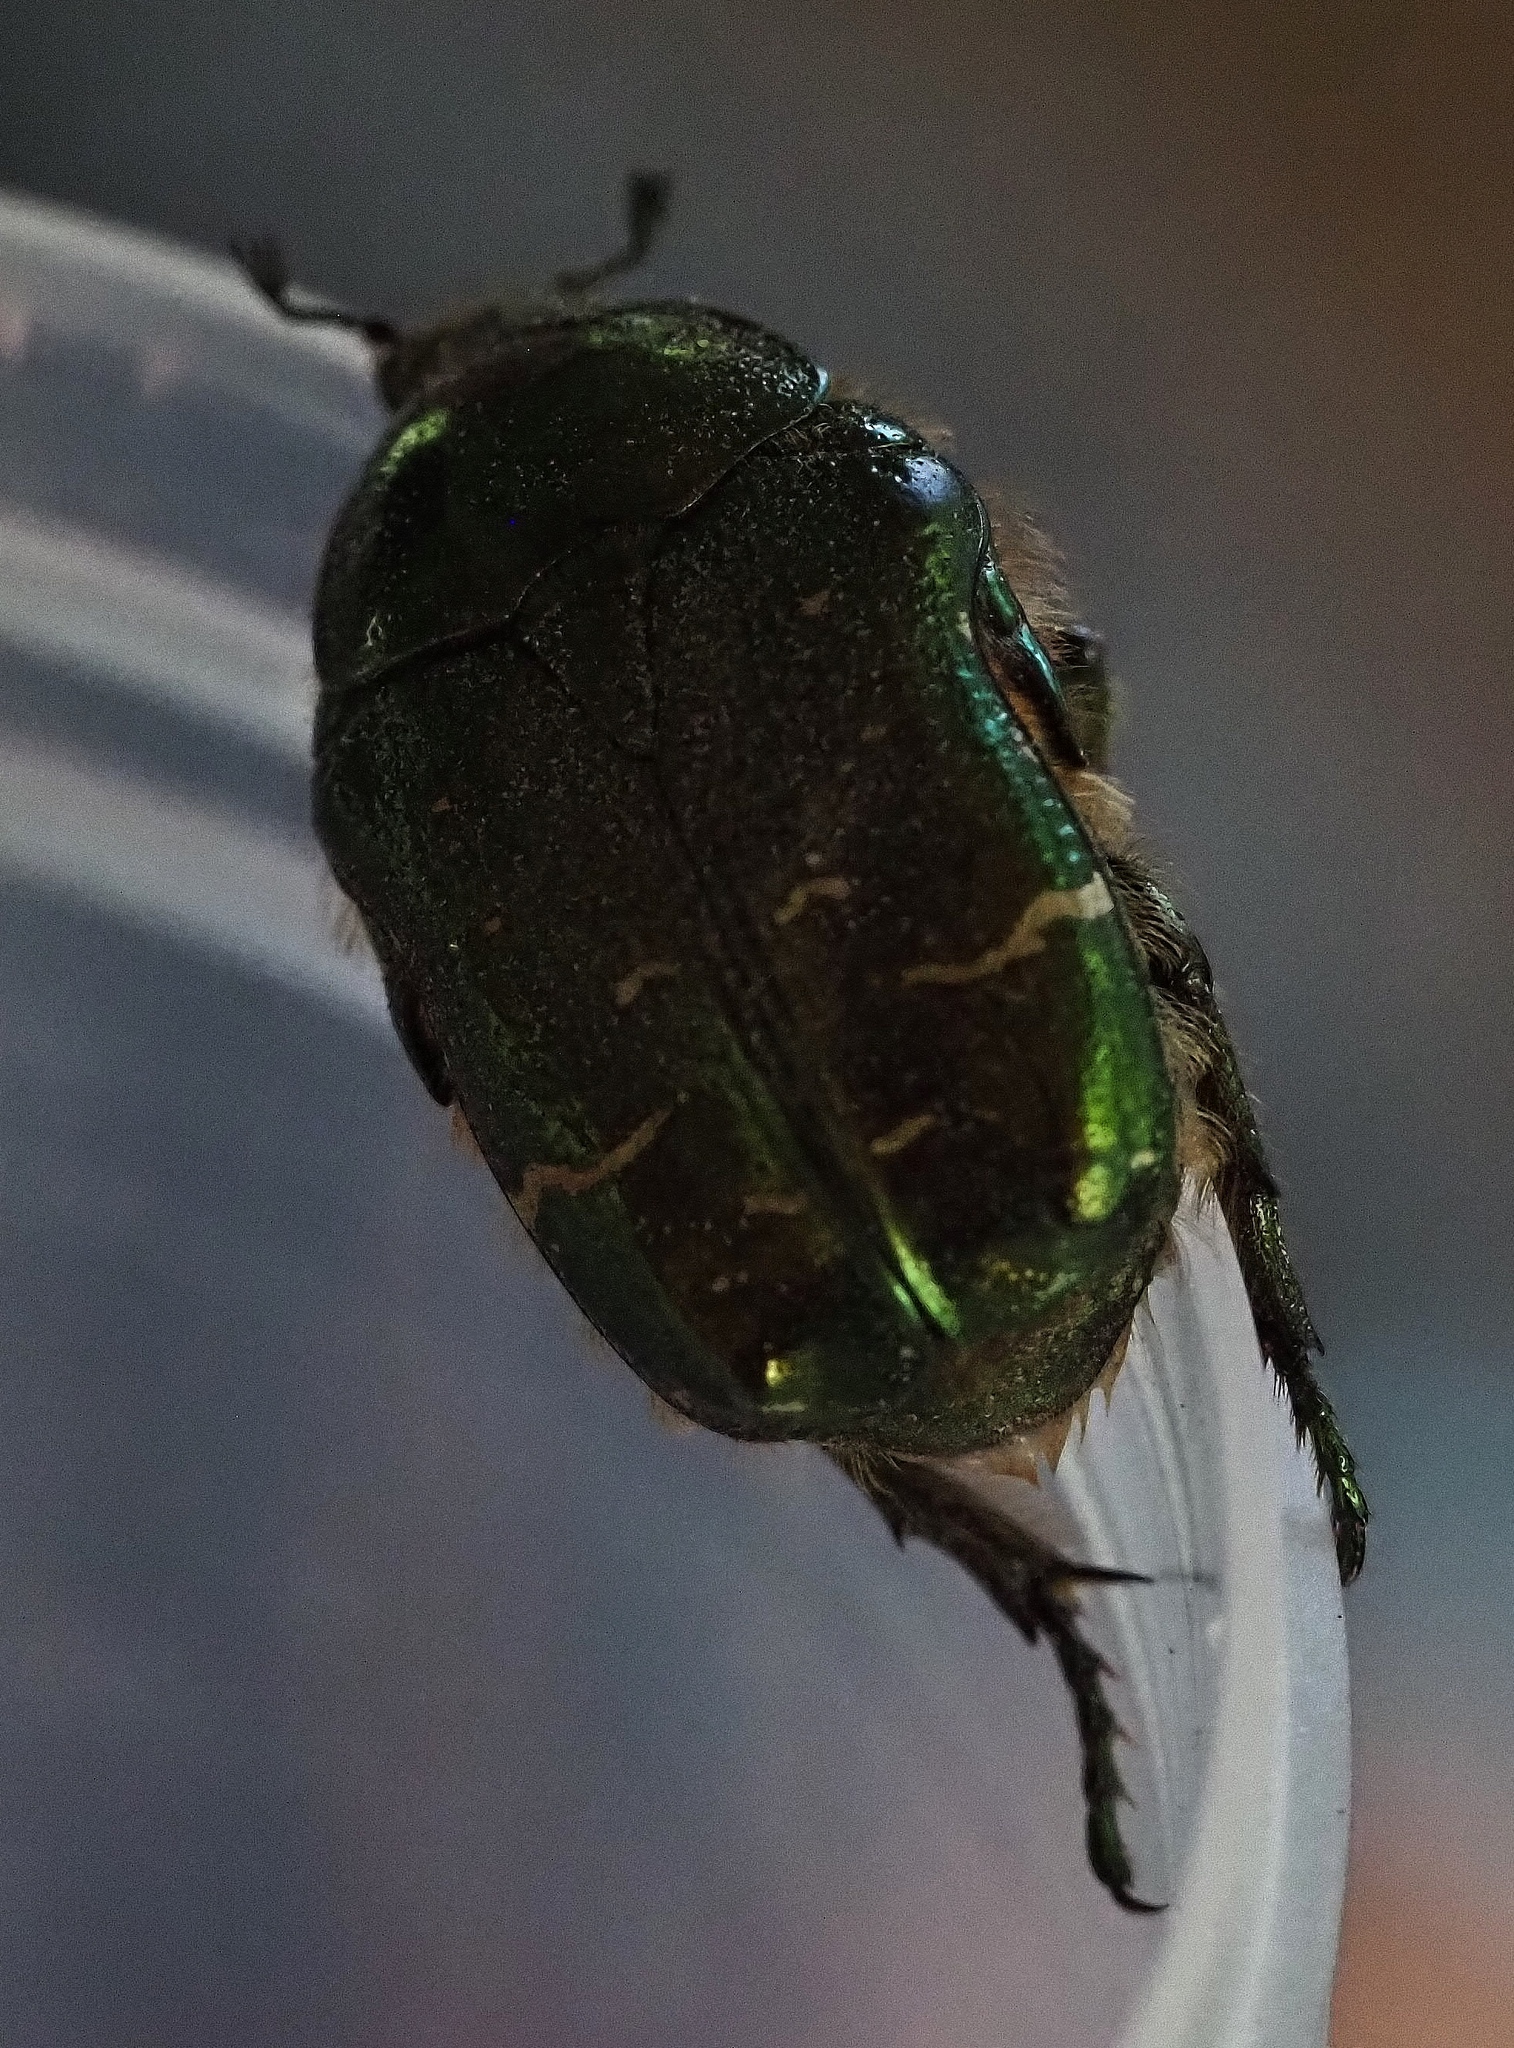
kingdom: Animalia
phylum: Arthropoda
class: Insecta
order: Coleoptera
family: Scarabaeidae
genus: Cetonia
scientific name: Cetonia aurata
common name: Rose chafer
